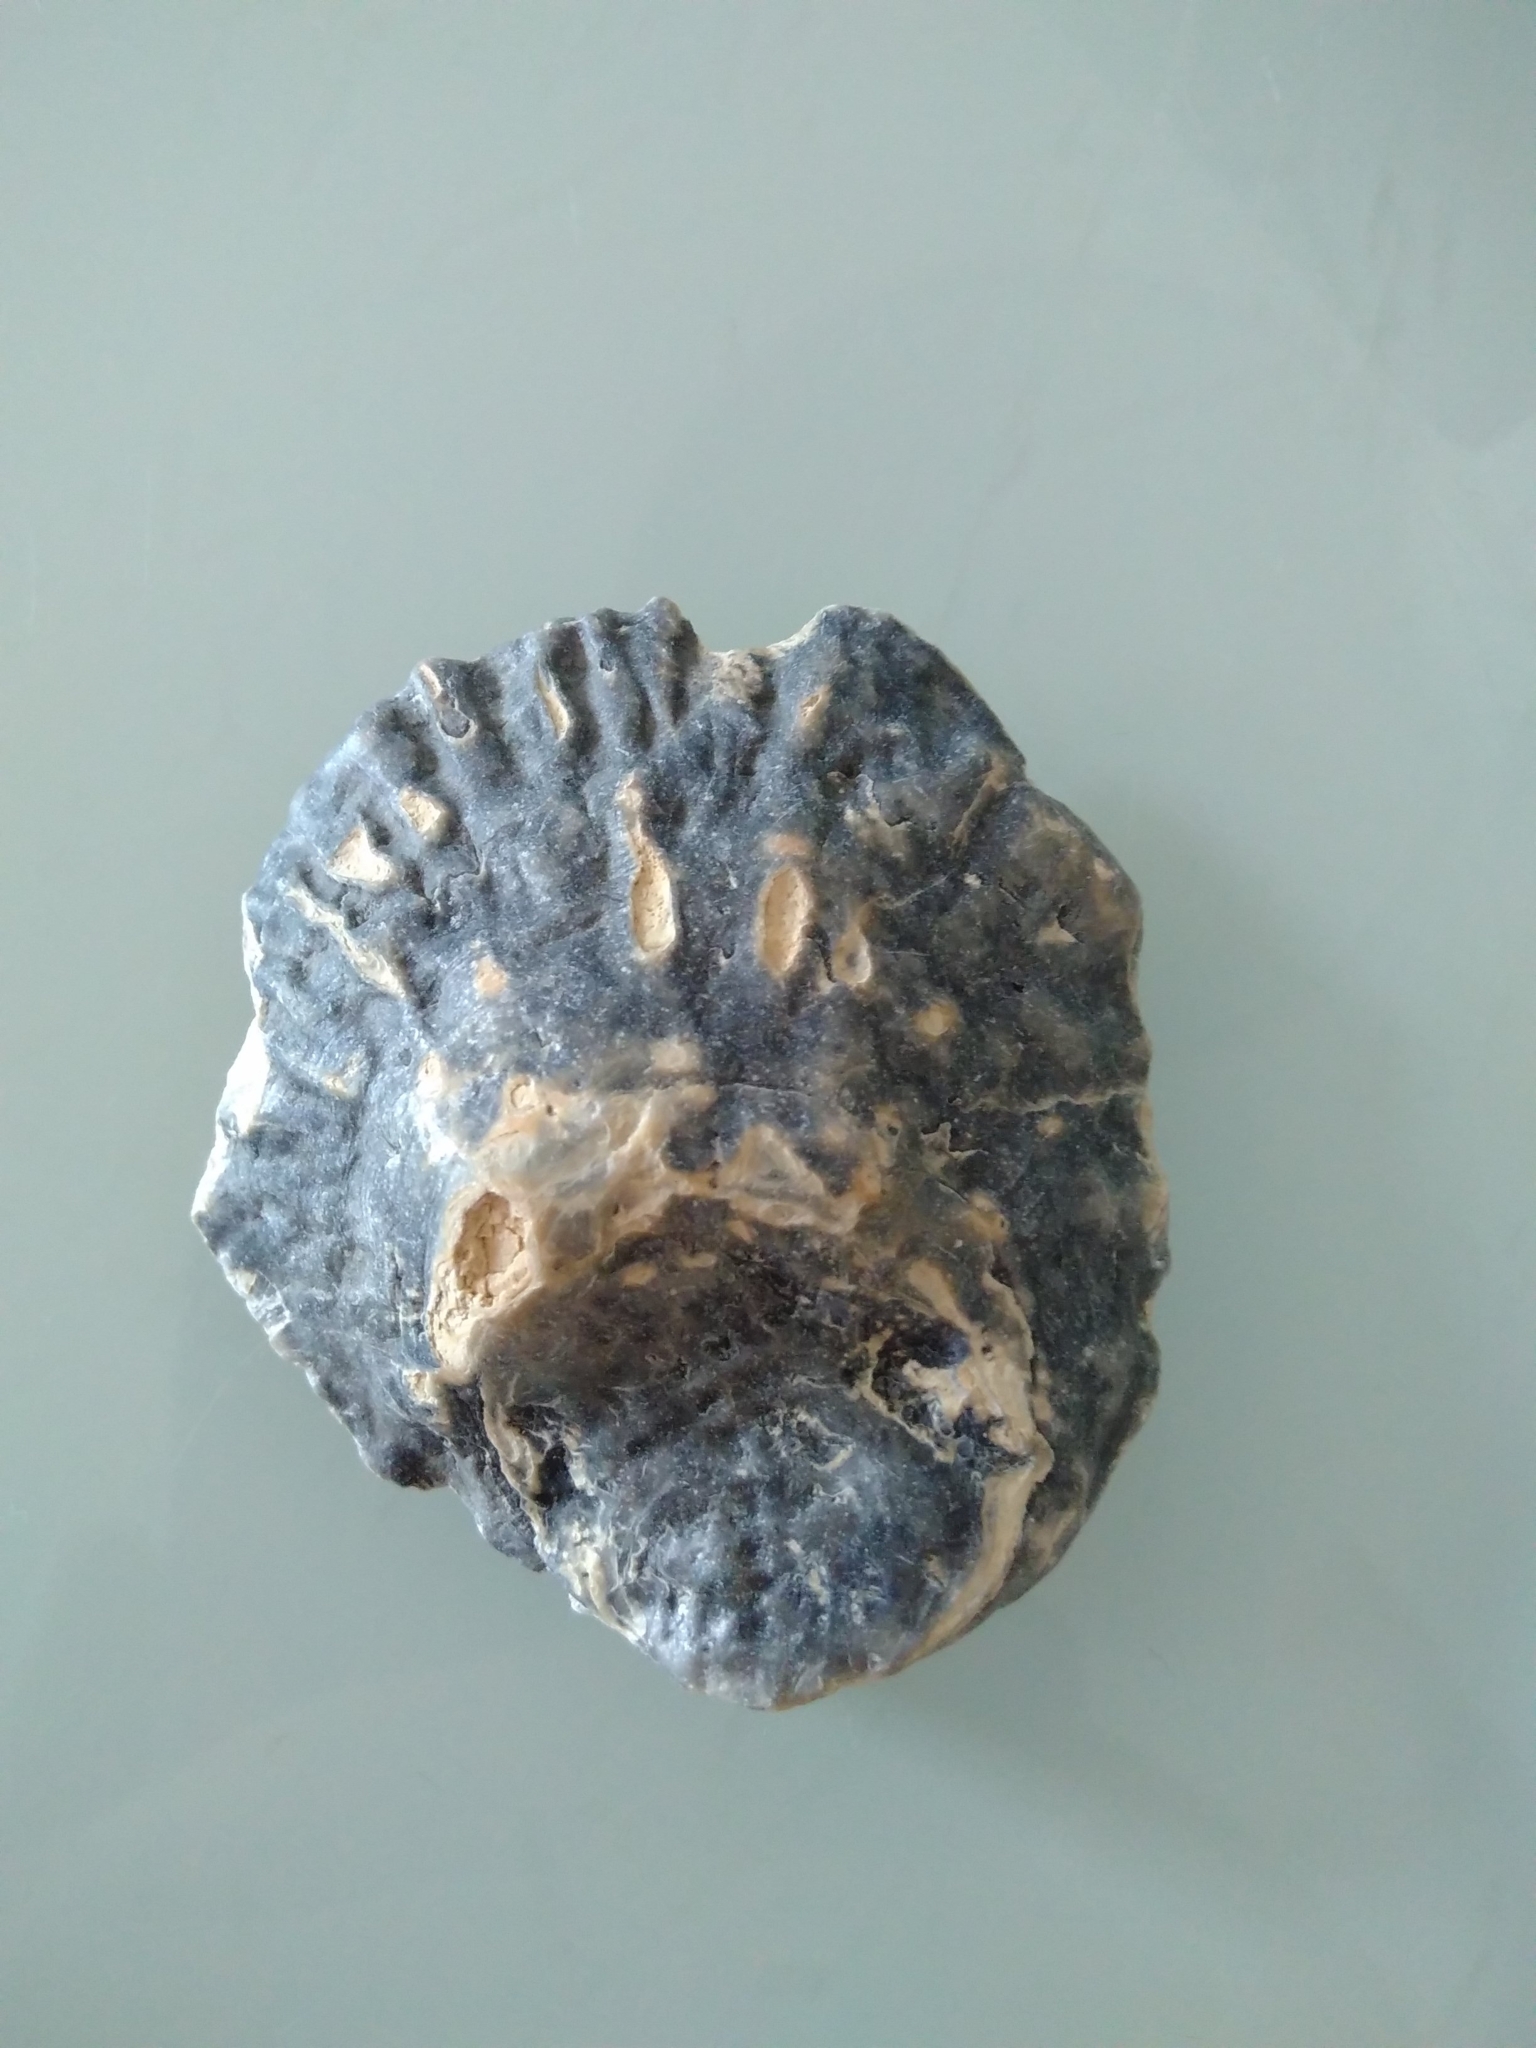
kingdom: Animalia
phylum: Mollusca
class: Bivalvia
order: Ostreida
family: Ostreidae
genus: Ostrea
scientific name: Ostrea edulis
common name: Flat oyster
